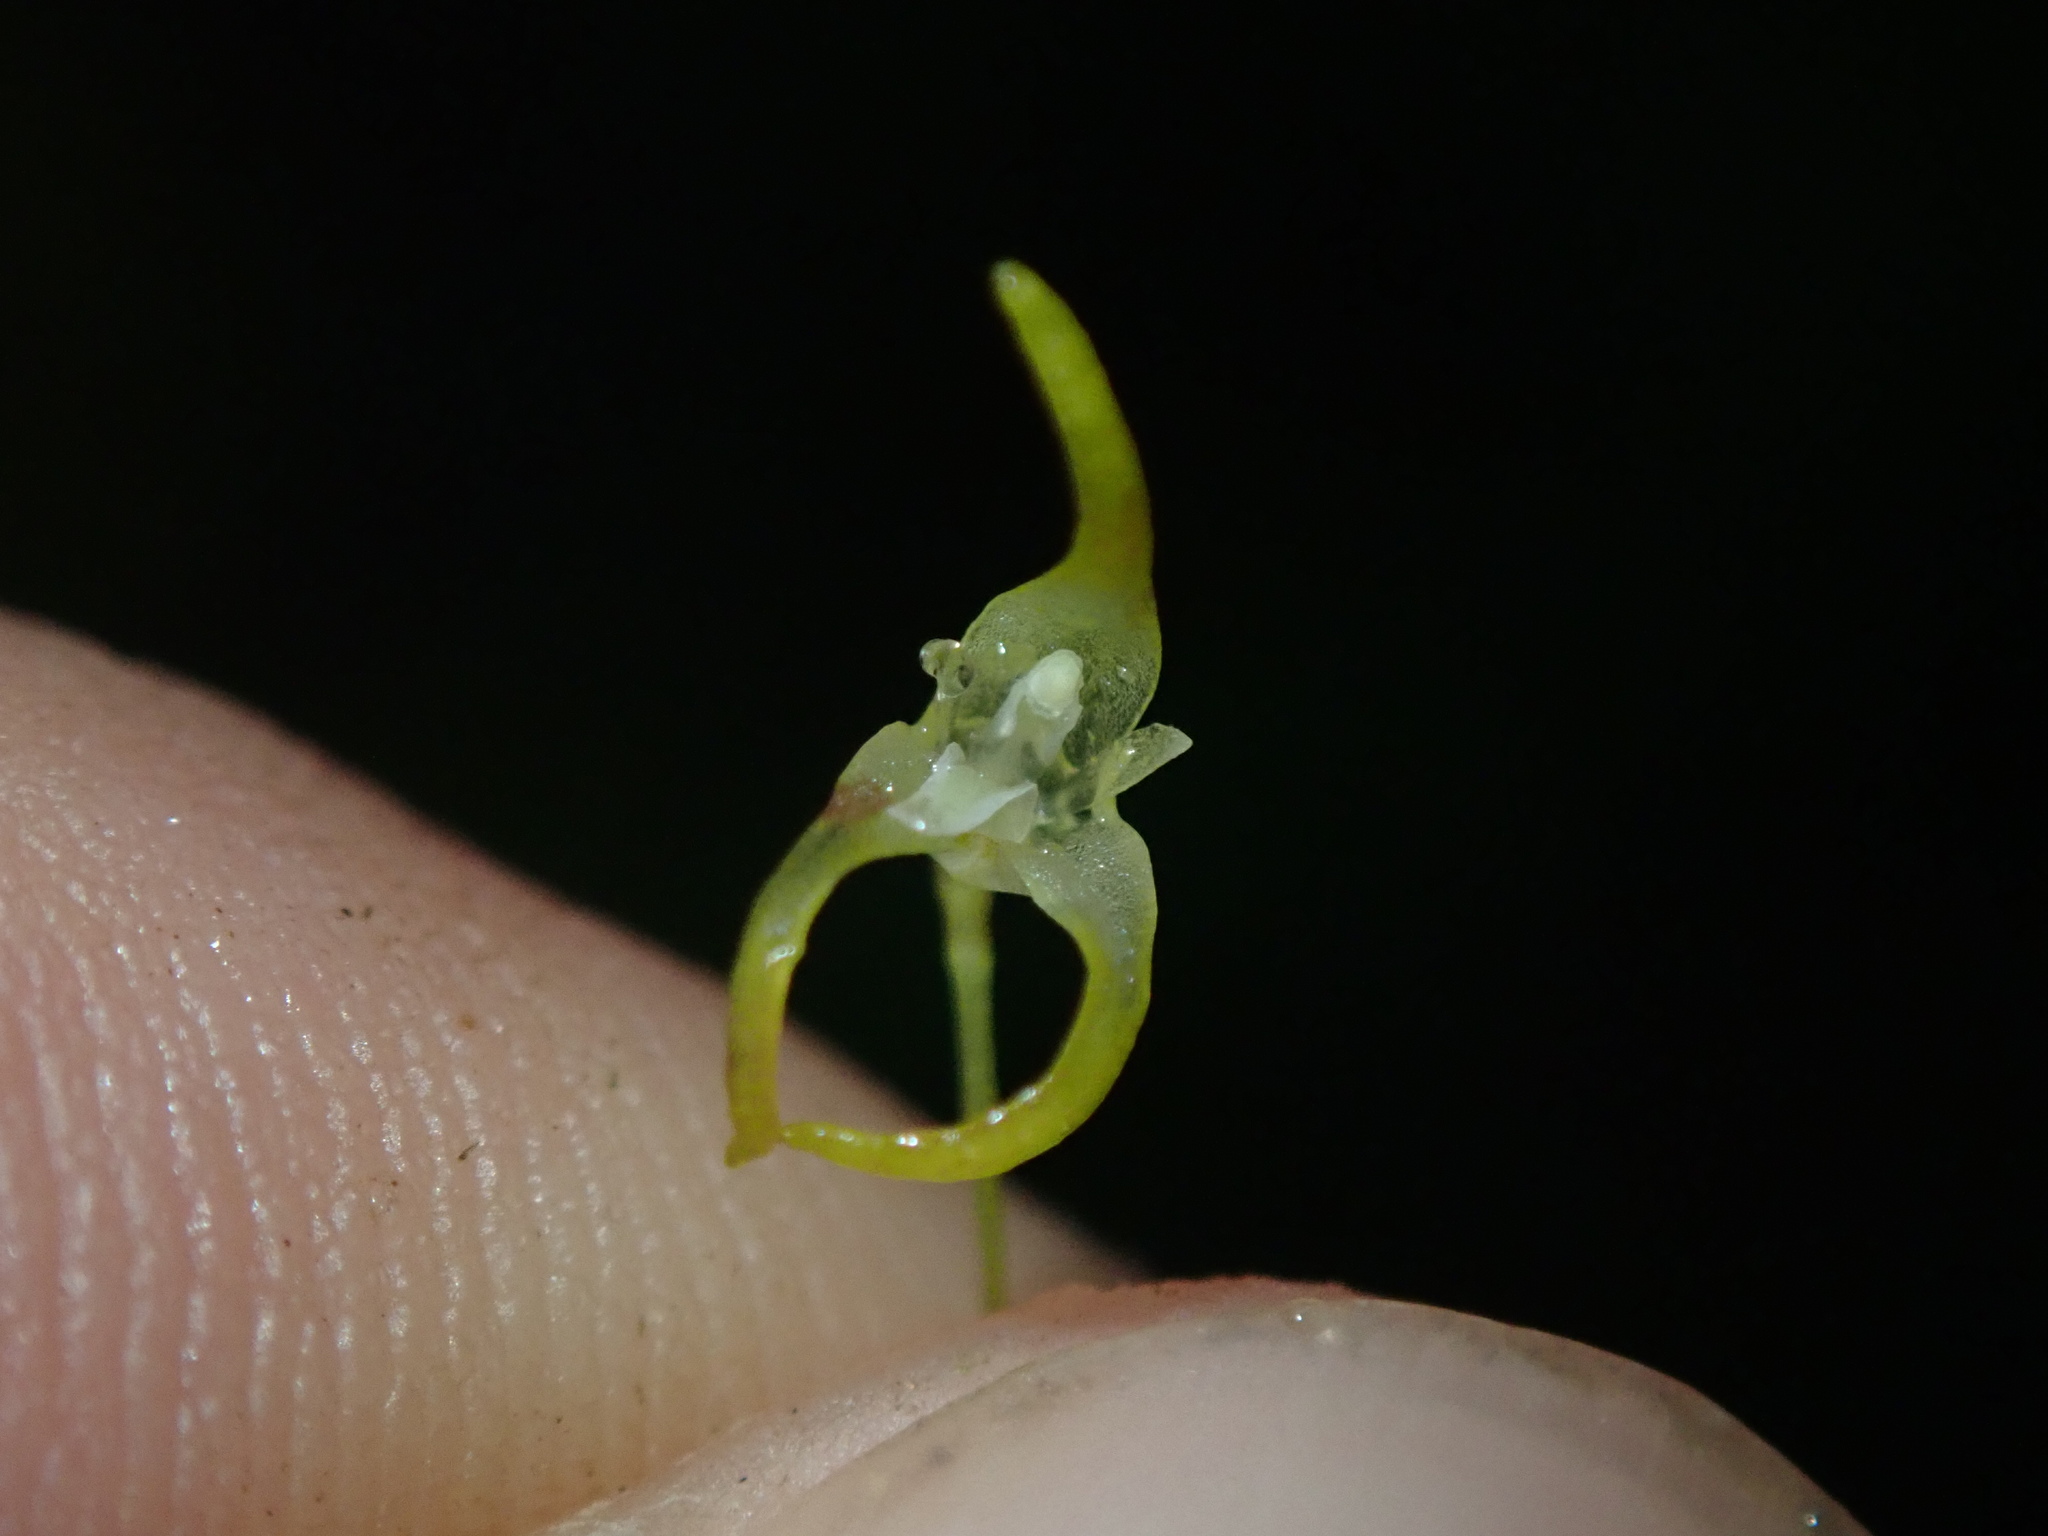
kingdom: Plantae
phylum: Tracheophyta
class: Liliopsida
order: Asparagales
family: Orchidaceae
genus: Specklinia
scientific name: Specklinia morganii
